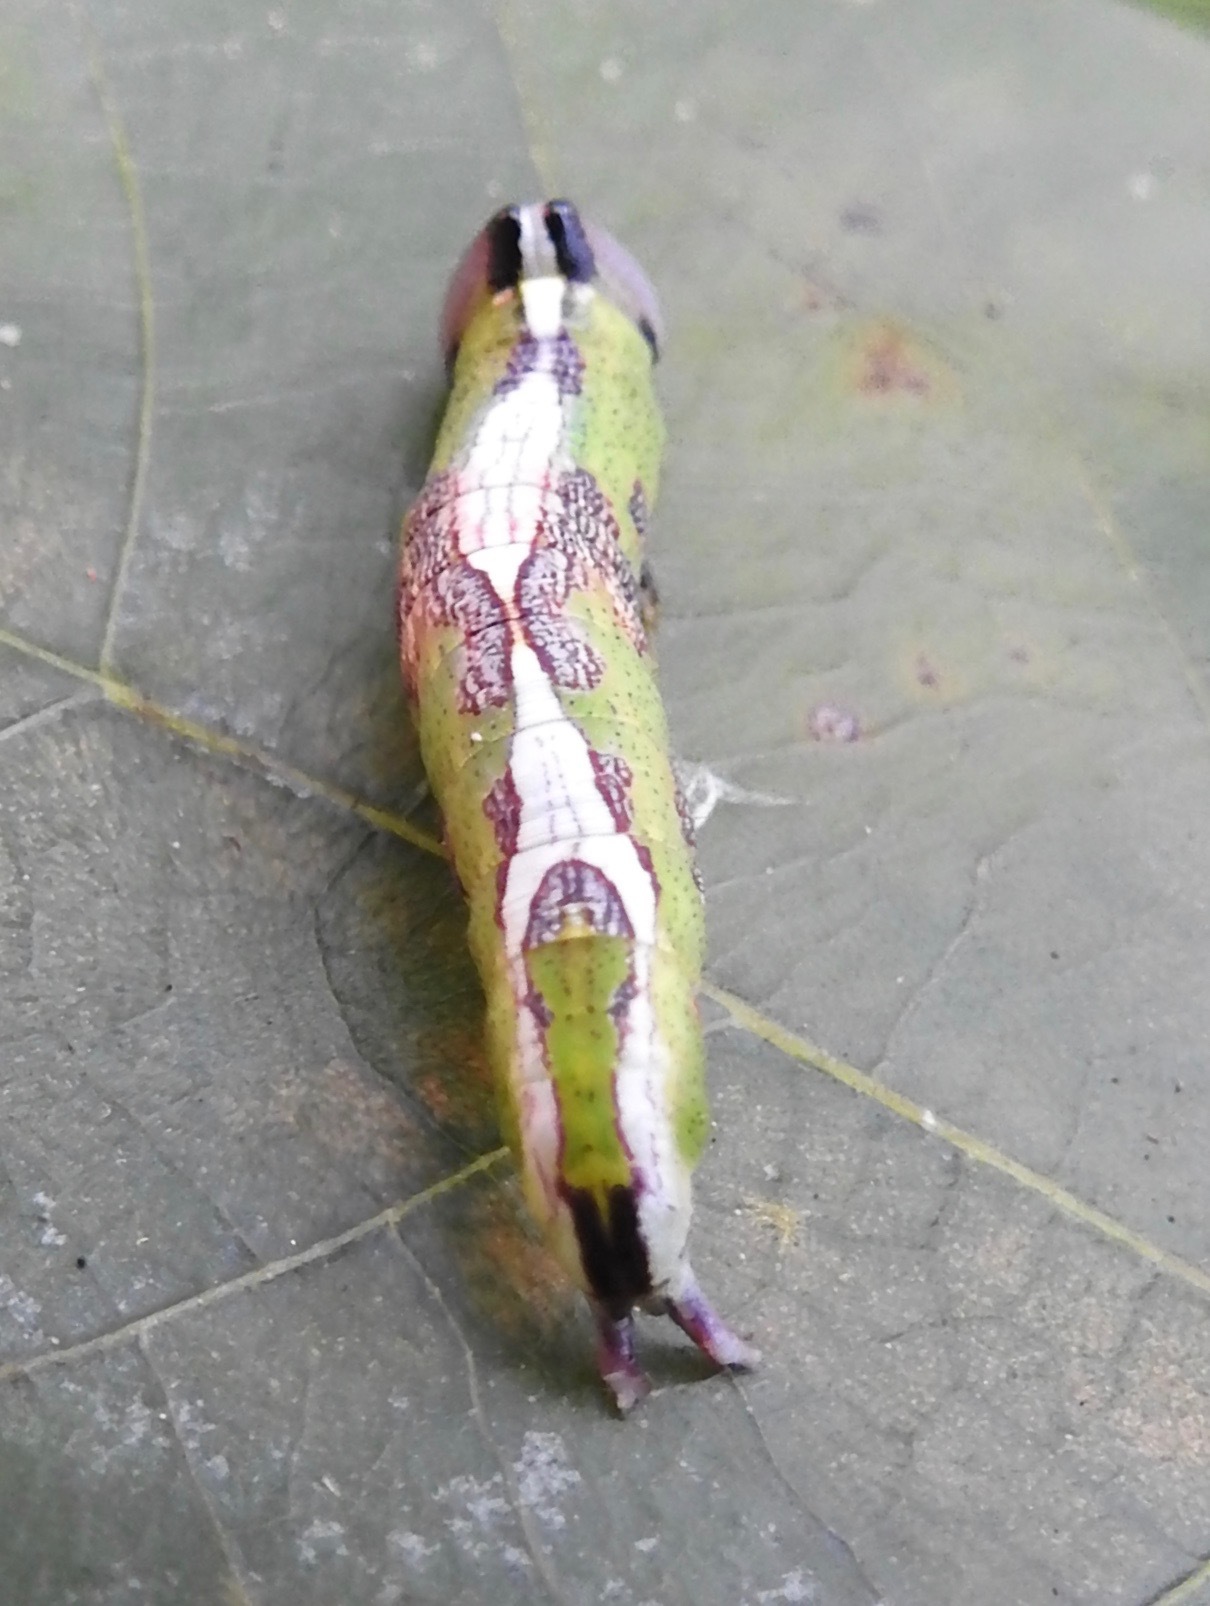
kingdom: Animalia
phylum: Arthropoda
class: Insecta
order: Lepidoptera
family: Notodontidae
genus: Disphragis
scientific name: Disphragis Cecrita biundata
